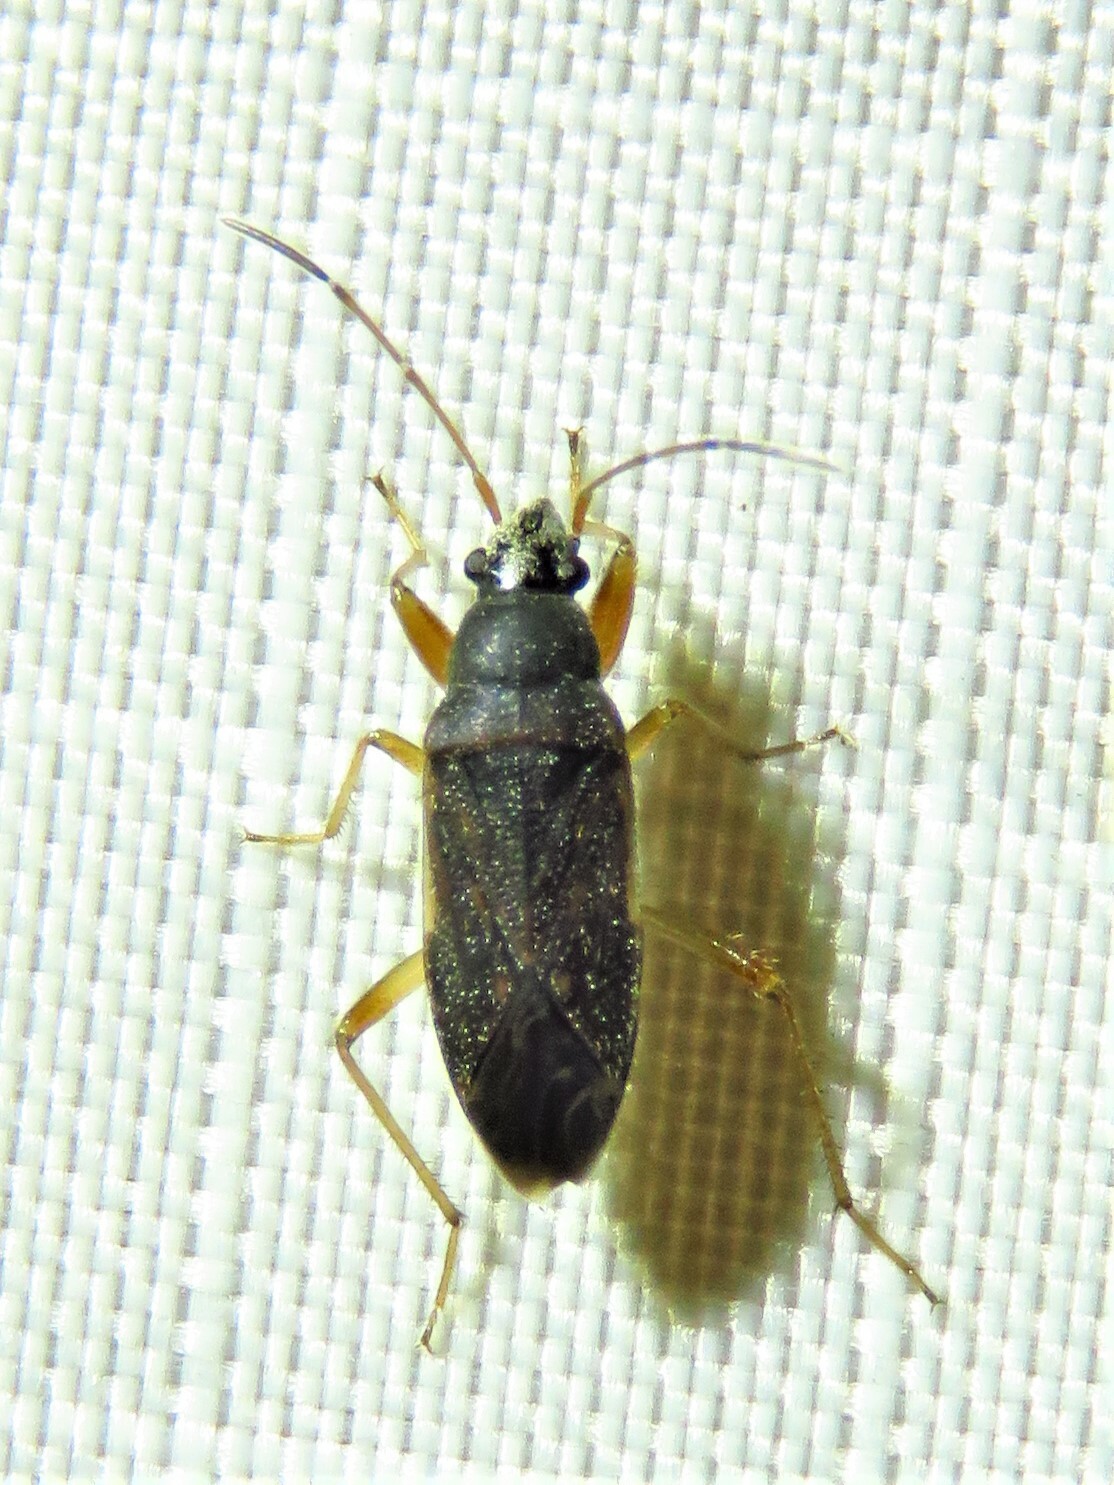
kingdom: Animalia
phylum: Arthropoda
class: Insecta
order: Hemiptera
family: Rhyparochromidae
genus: Perigenes
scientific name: Perigenes similis
